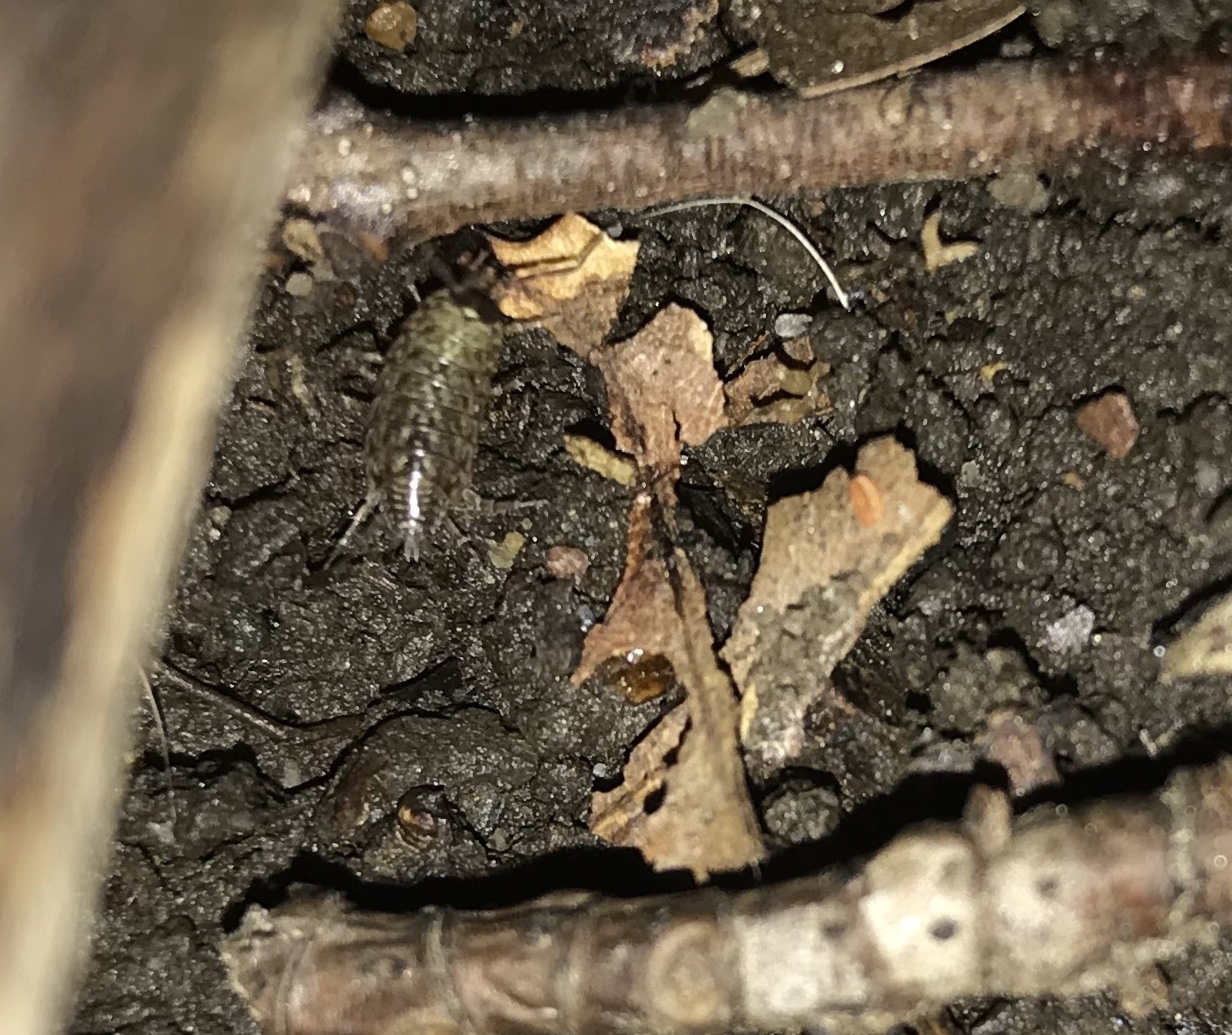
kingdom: Animalia
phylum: Arthropoda
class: Malacostraca
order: Isopoda
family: Philosciidae
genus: Philoscia
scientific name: Philoscia muscorum
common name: Common striped woodlouse
